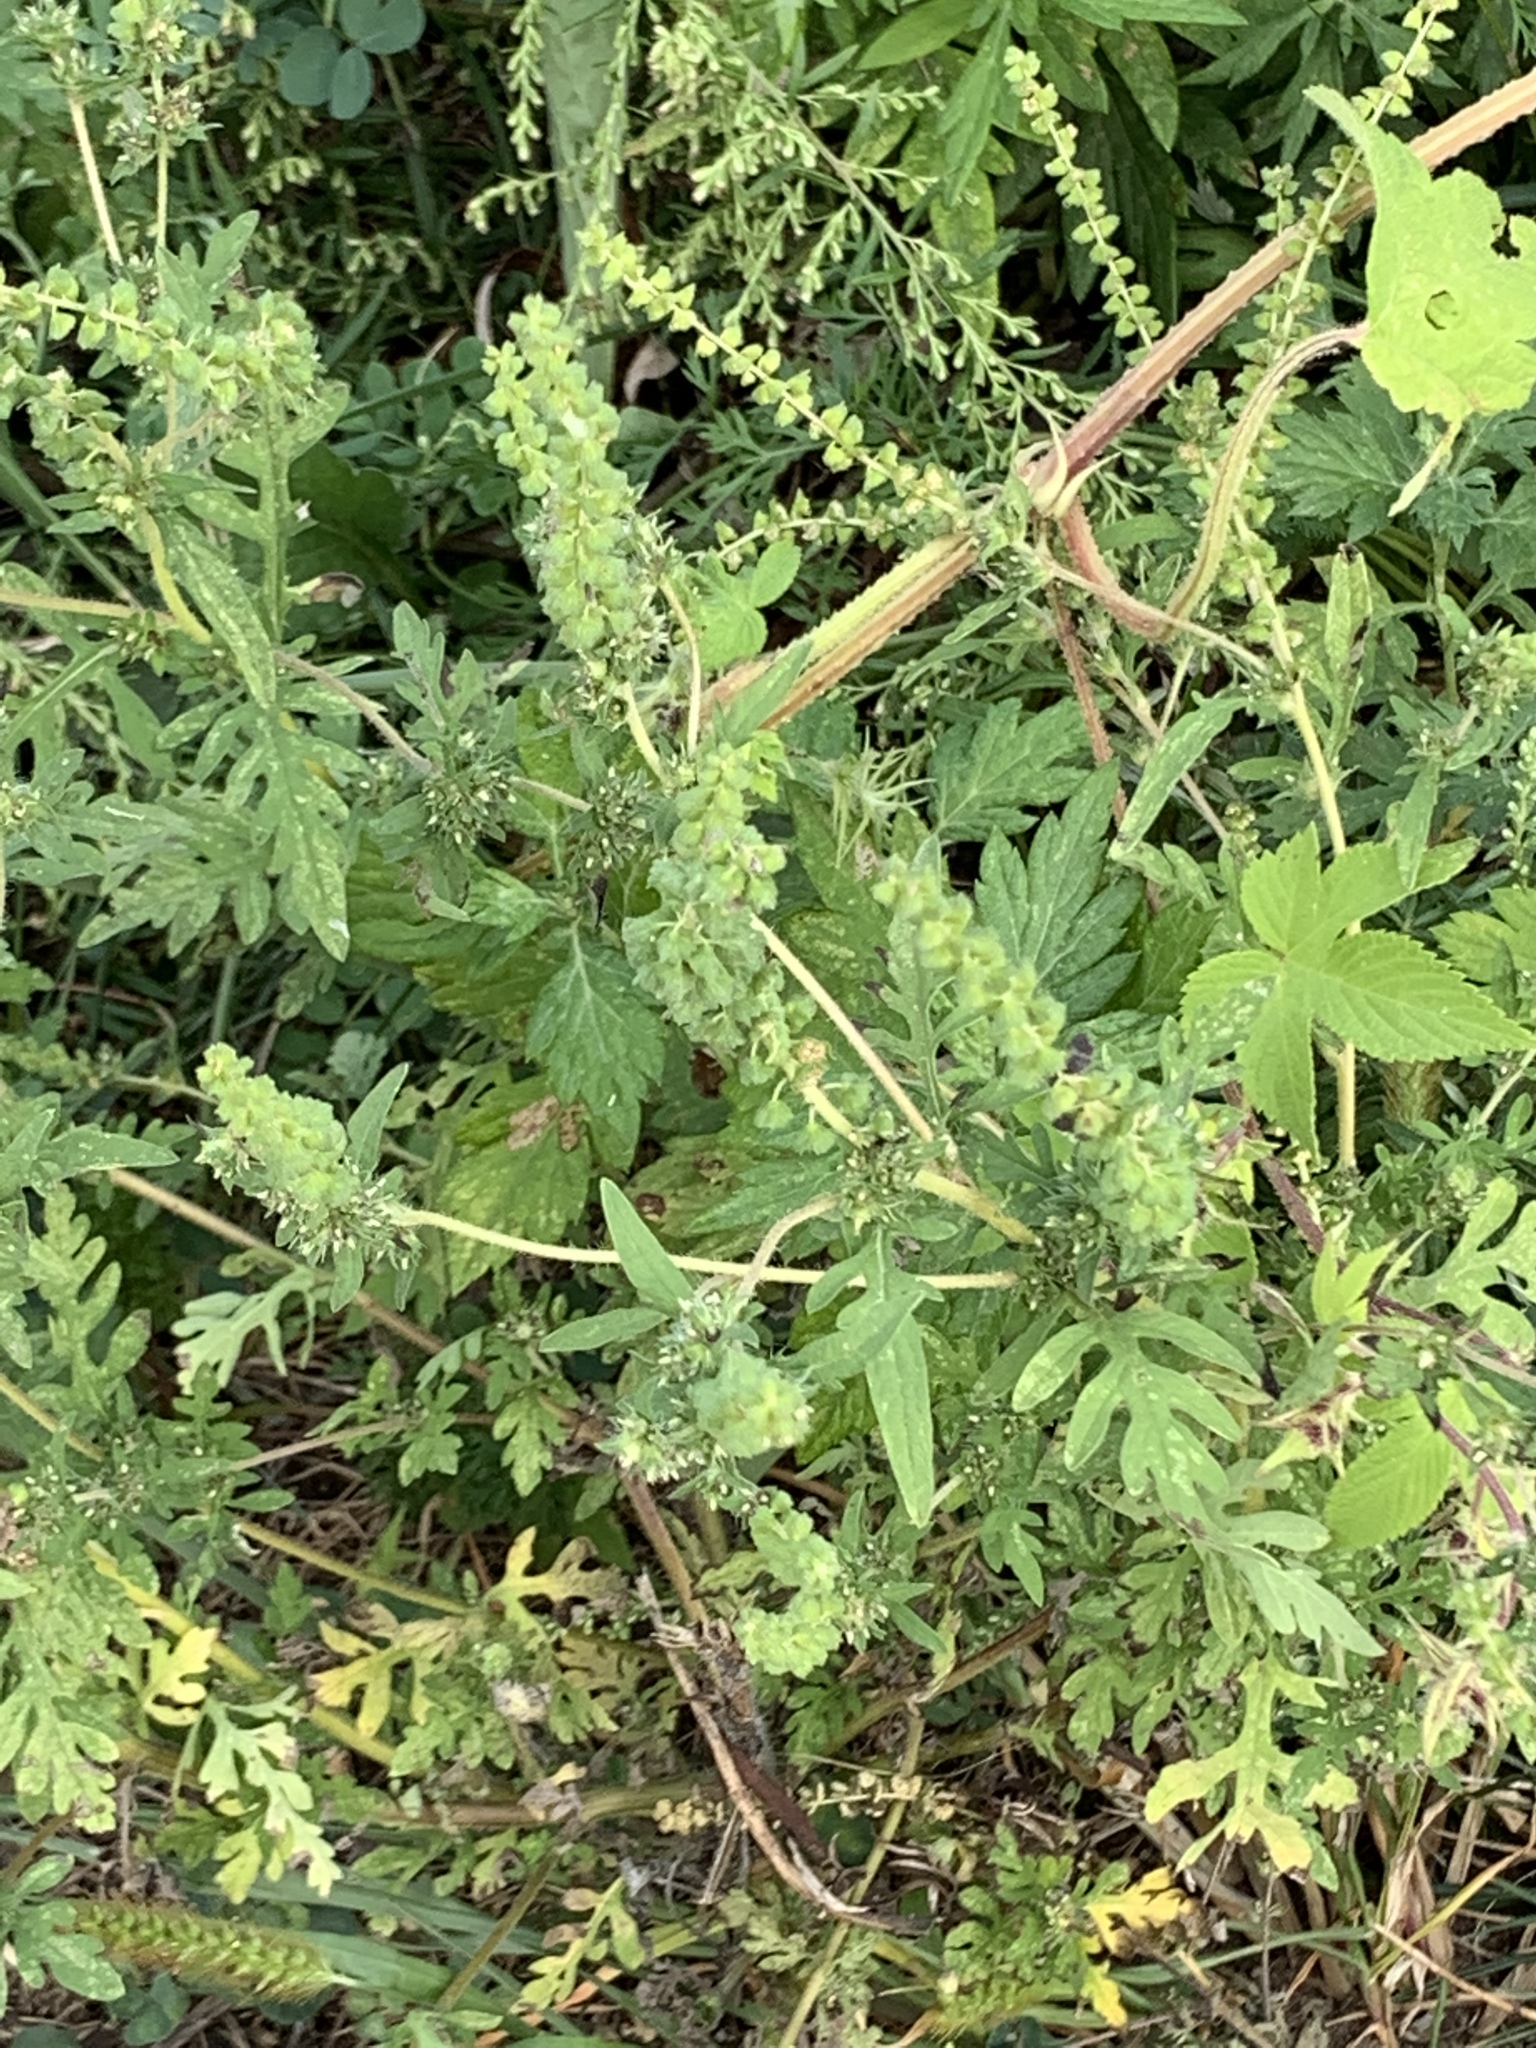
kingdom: Plantae
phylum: Tracheophyta
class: Magnoliopsida
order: Asterales
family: Asteraceae
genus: Ambrosia
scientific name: Ambrosia artemisiifolia
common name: Annual ragweed
